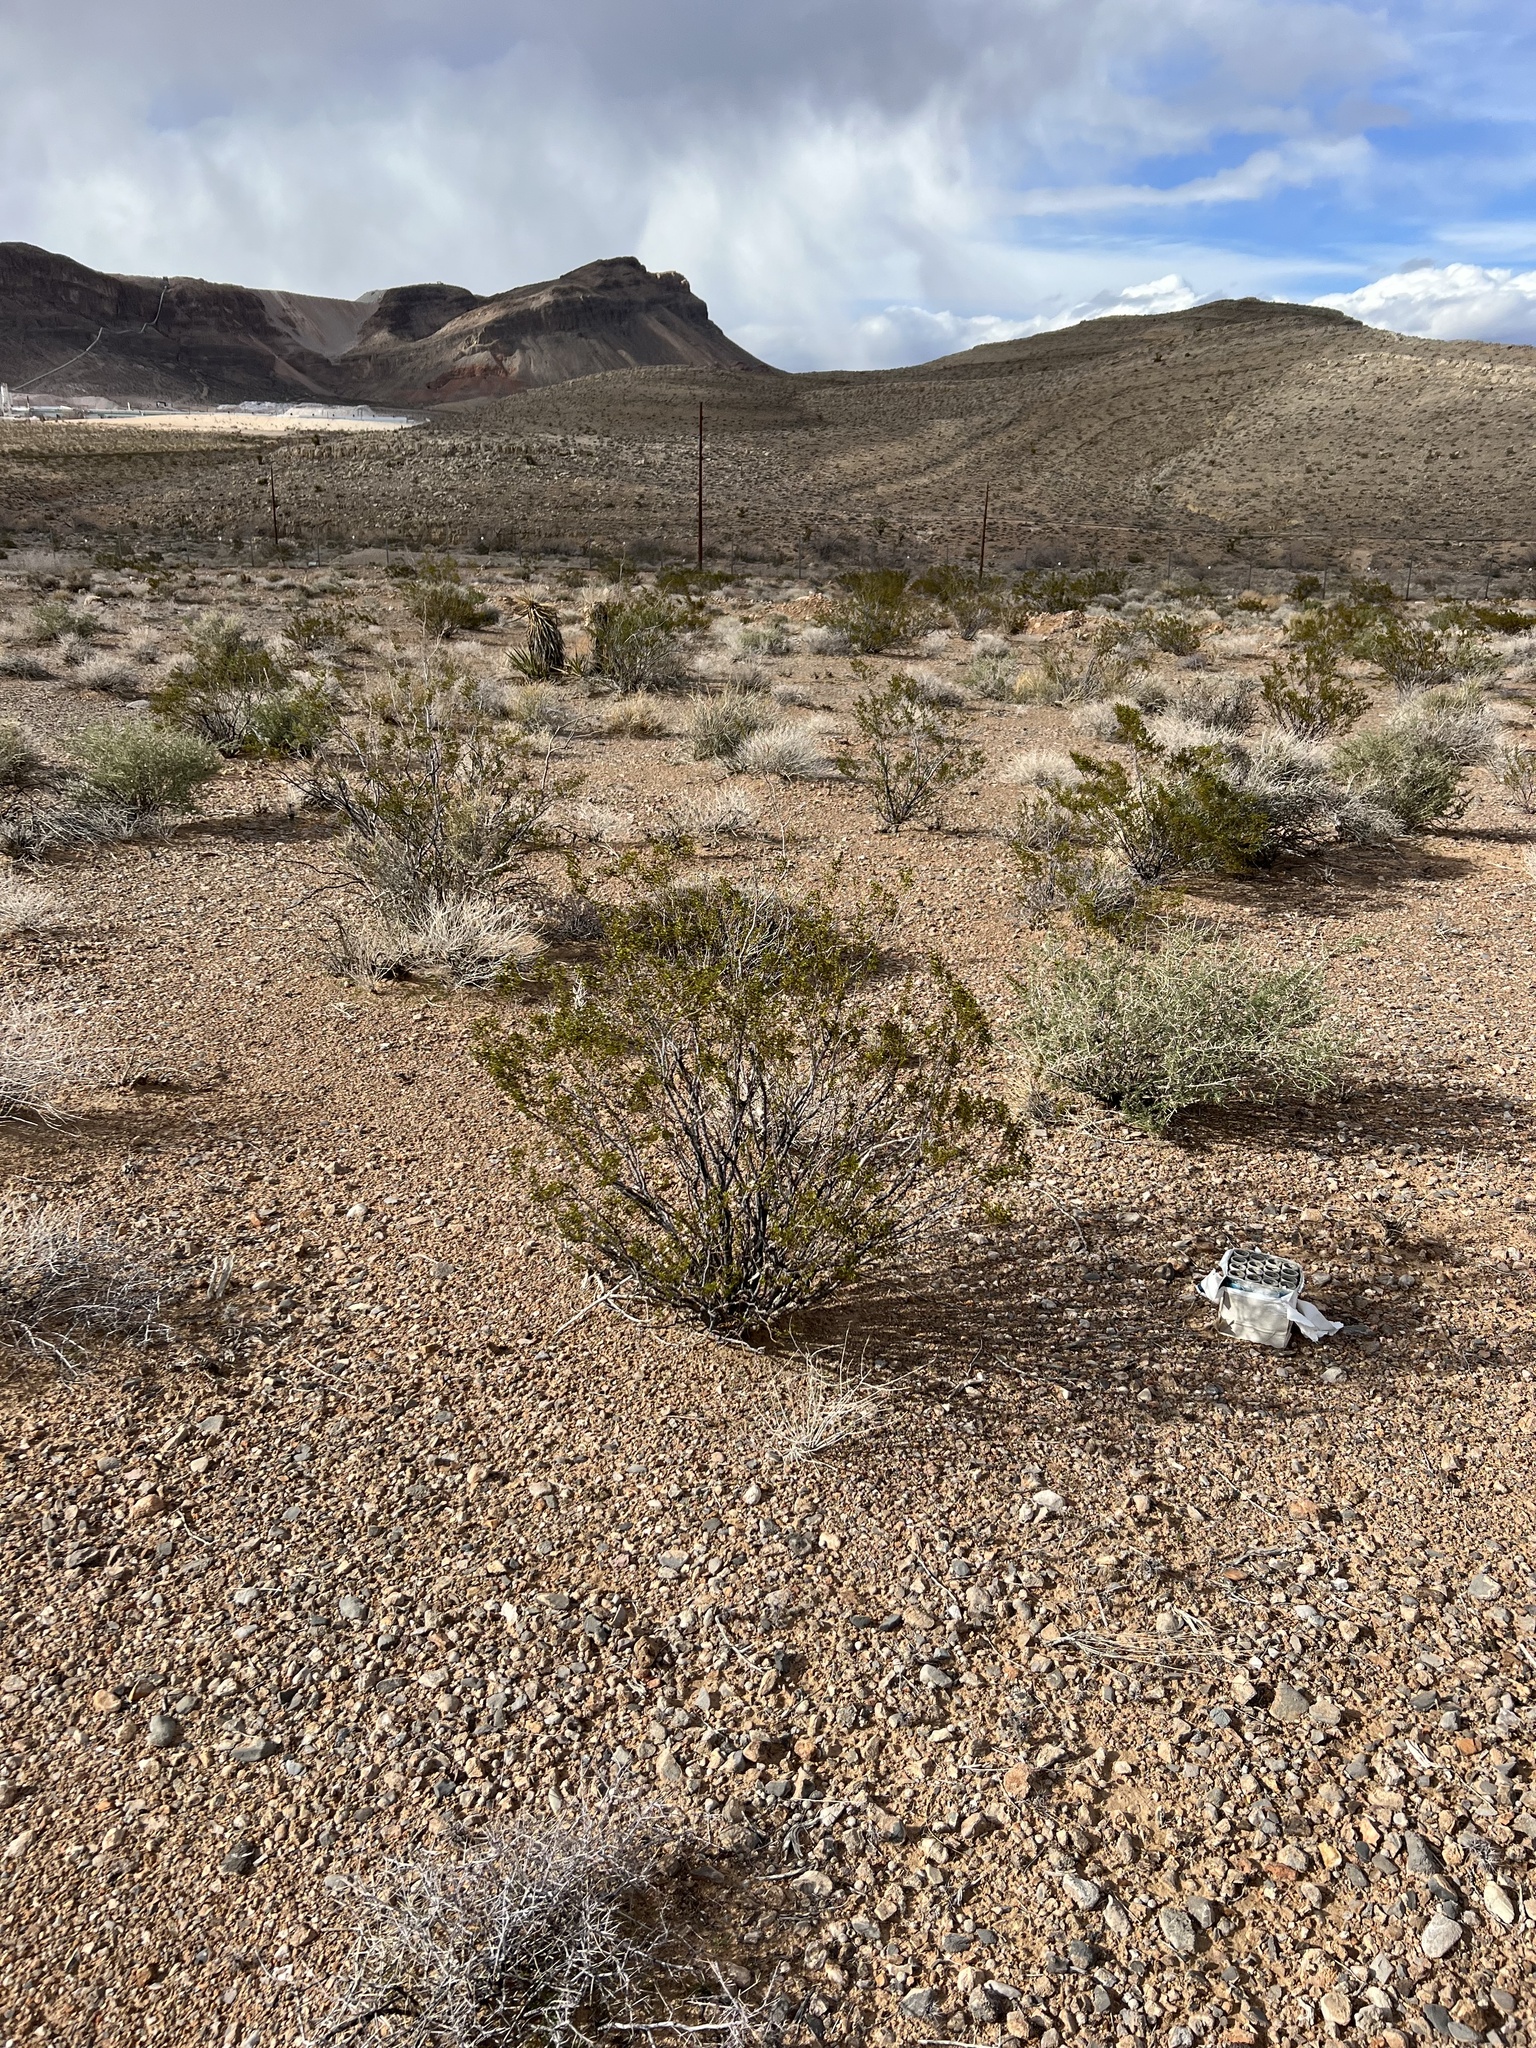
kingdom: Plantae
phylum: Tracheophyta
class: Magnoliopsida
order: Zygophyllales
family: Zygophyllaceae
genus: Larrea
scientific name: Larrea tridentata
